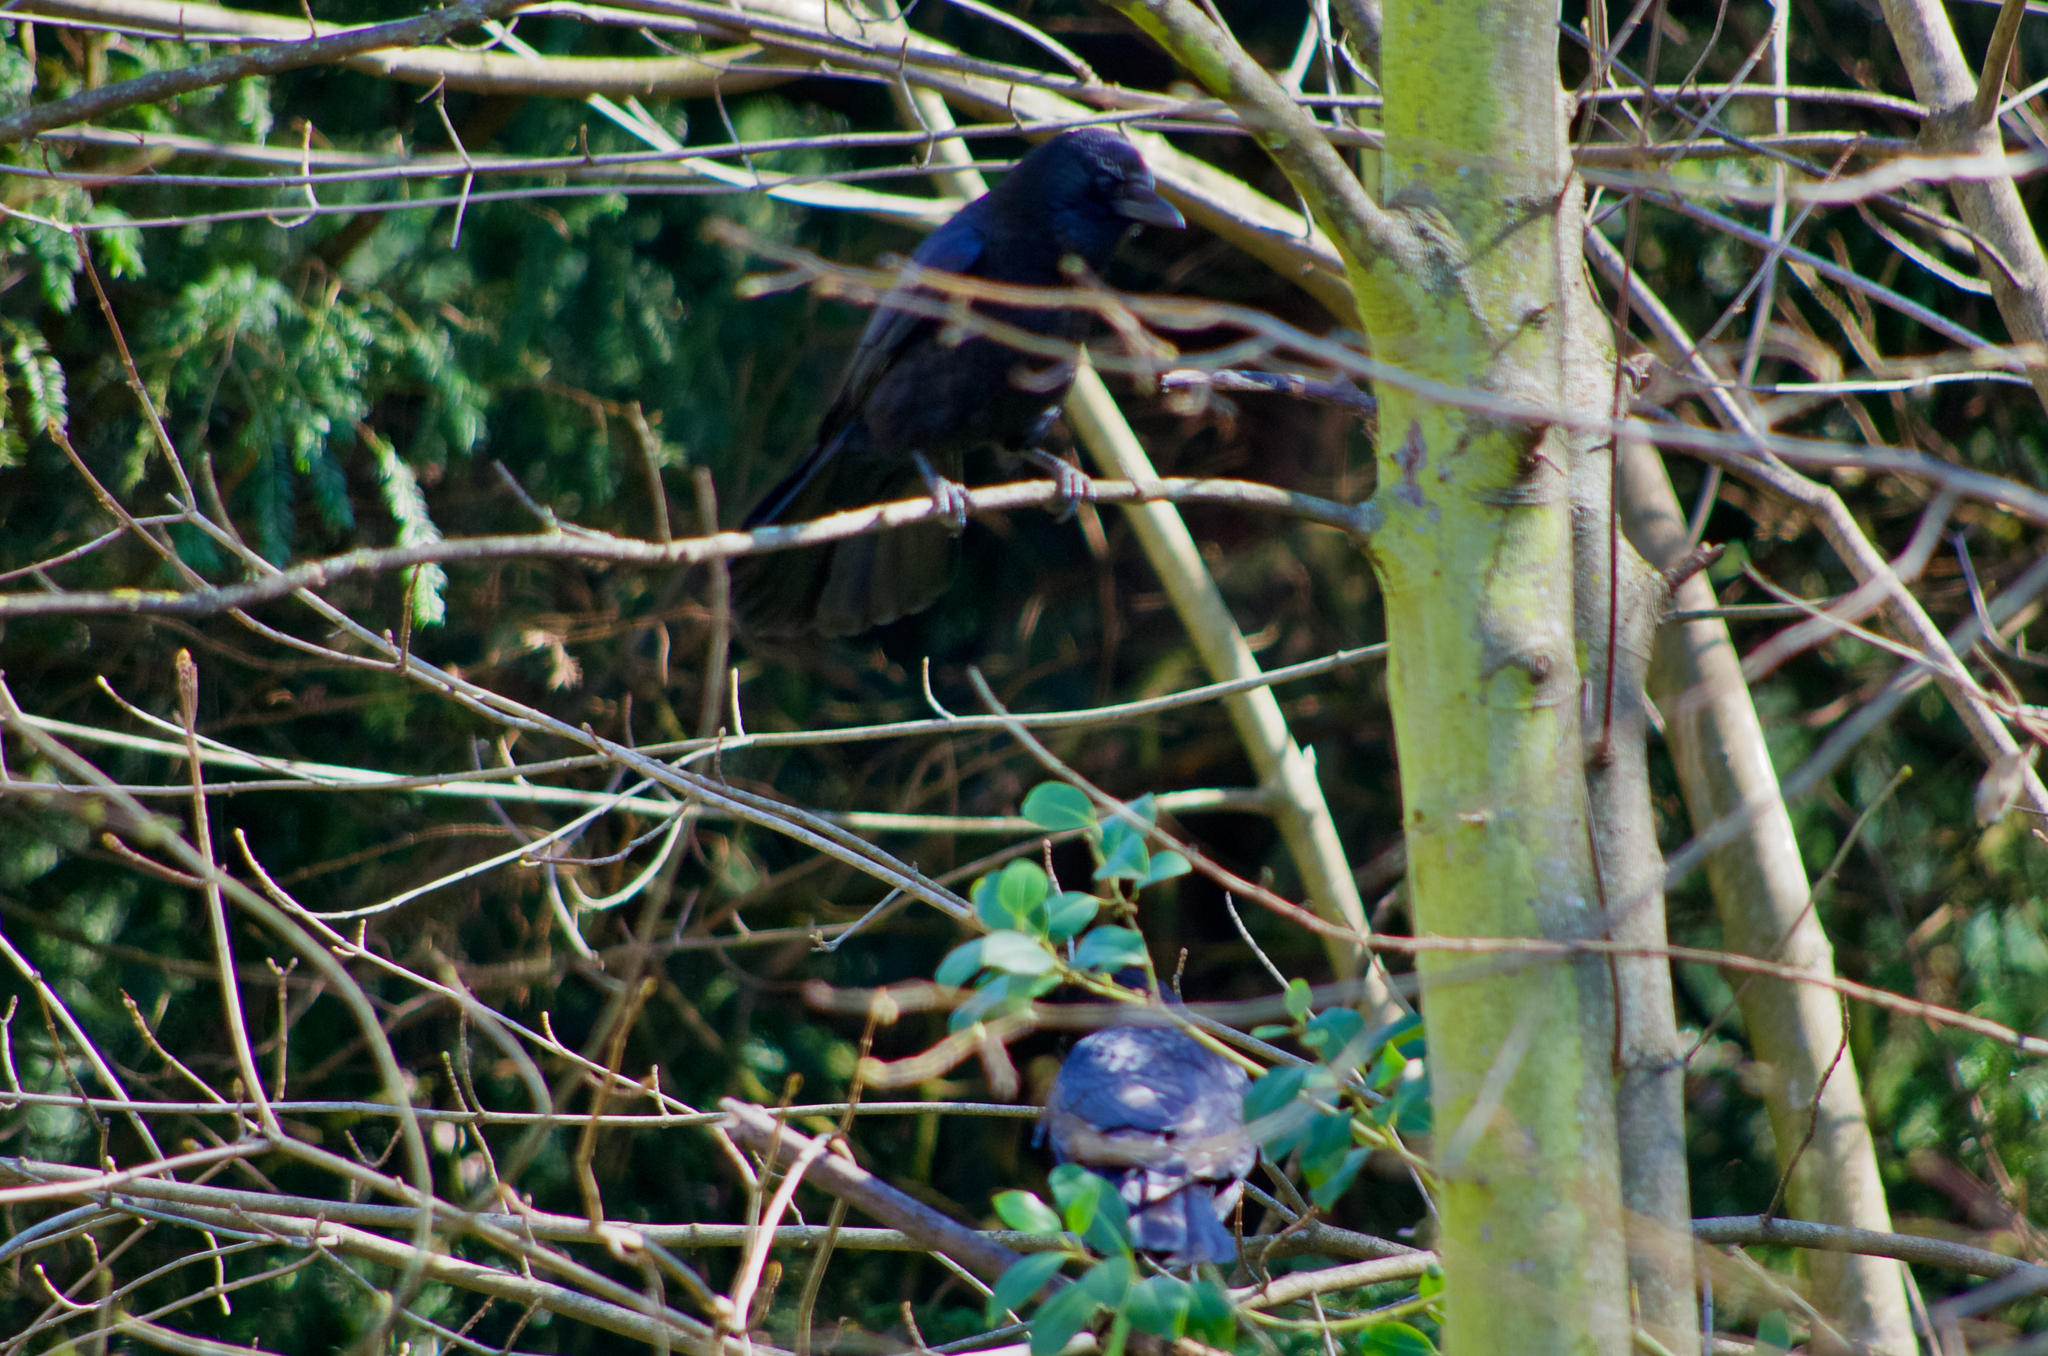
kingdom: Animalia
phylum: Chordata
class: Aves
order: Passeriformes
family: Corvidae
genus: Corvus
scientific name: Corvus corone
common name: Carrion crow
